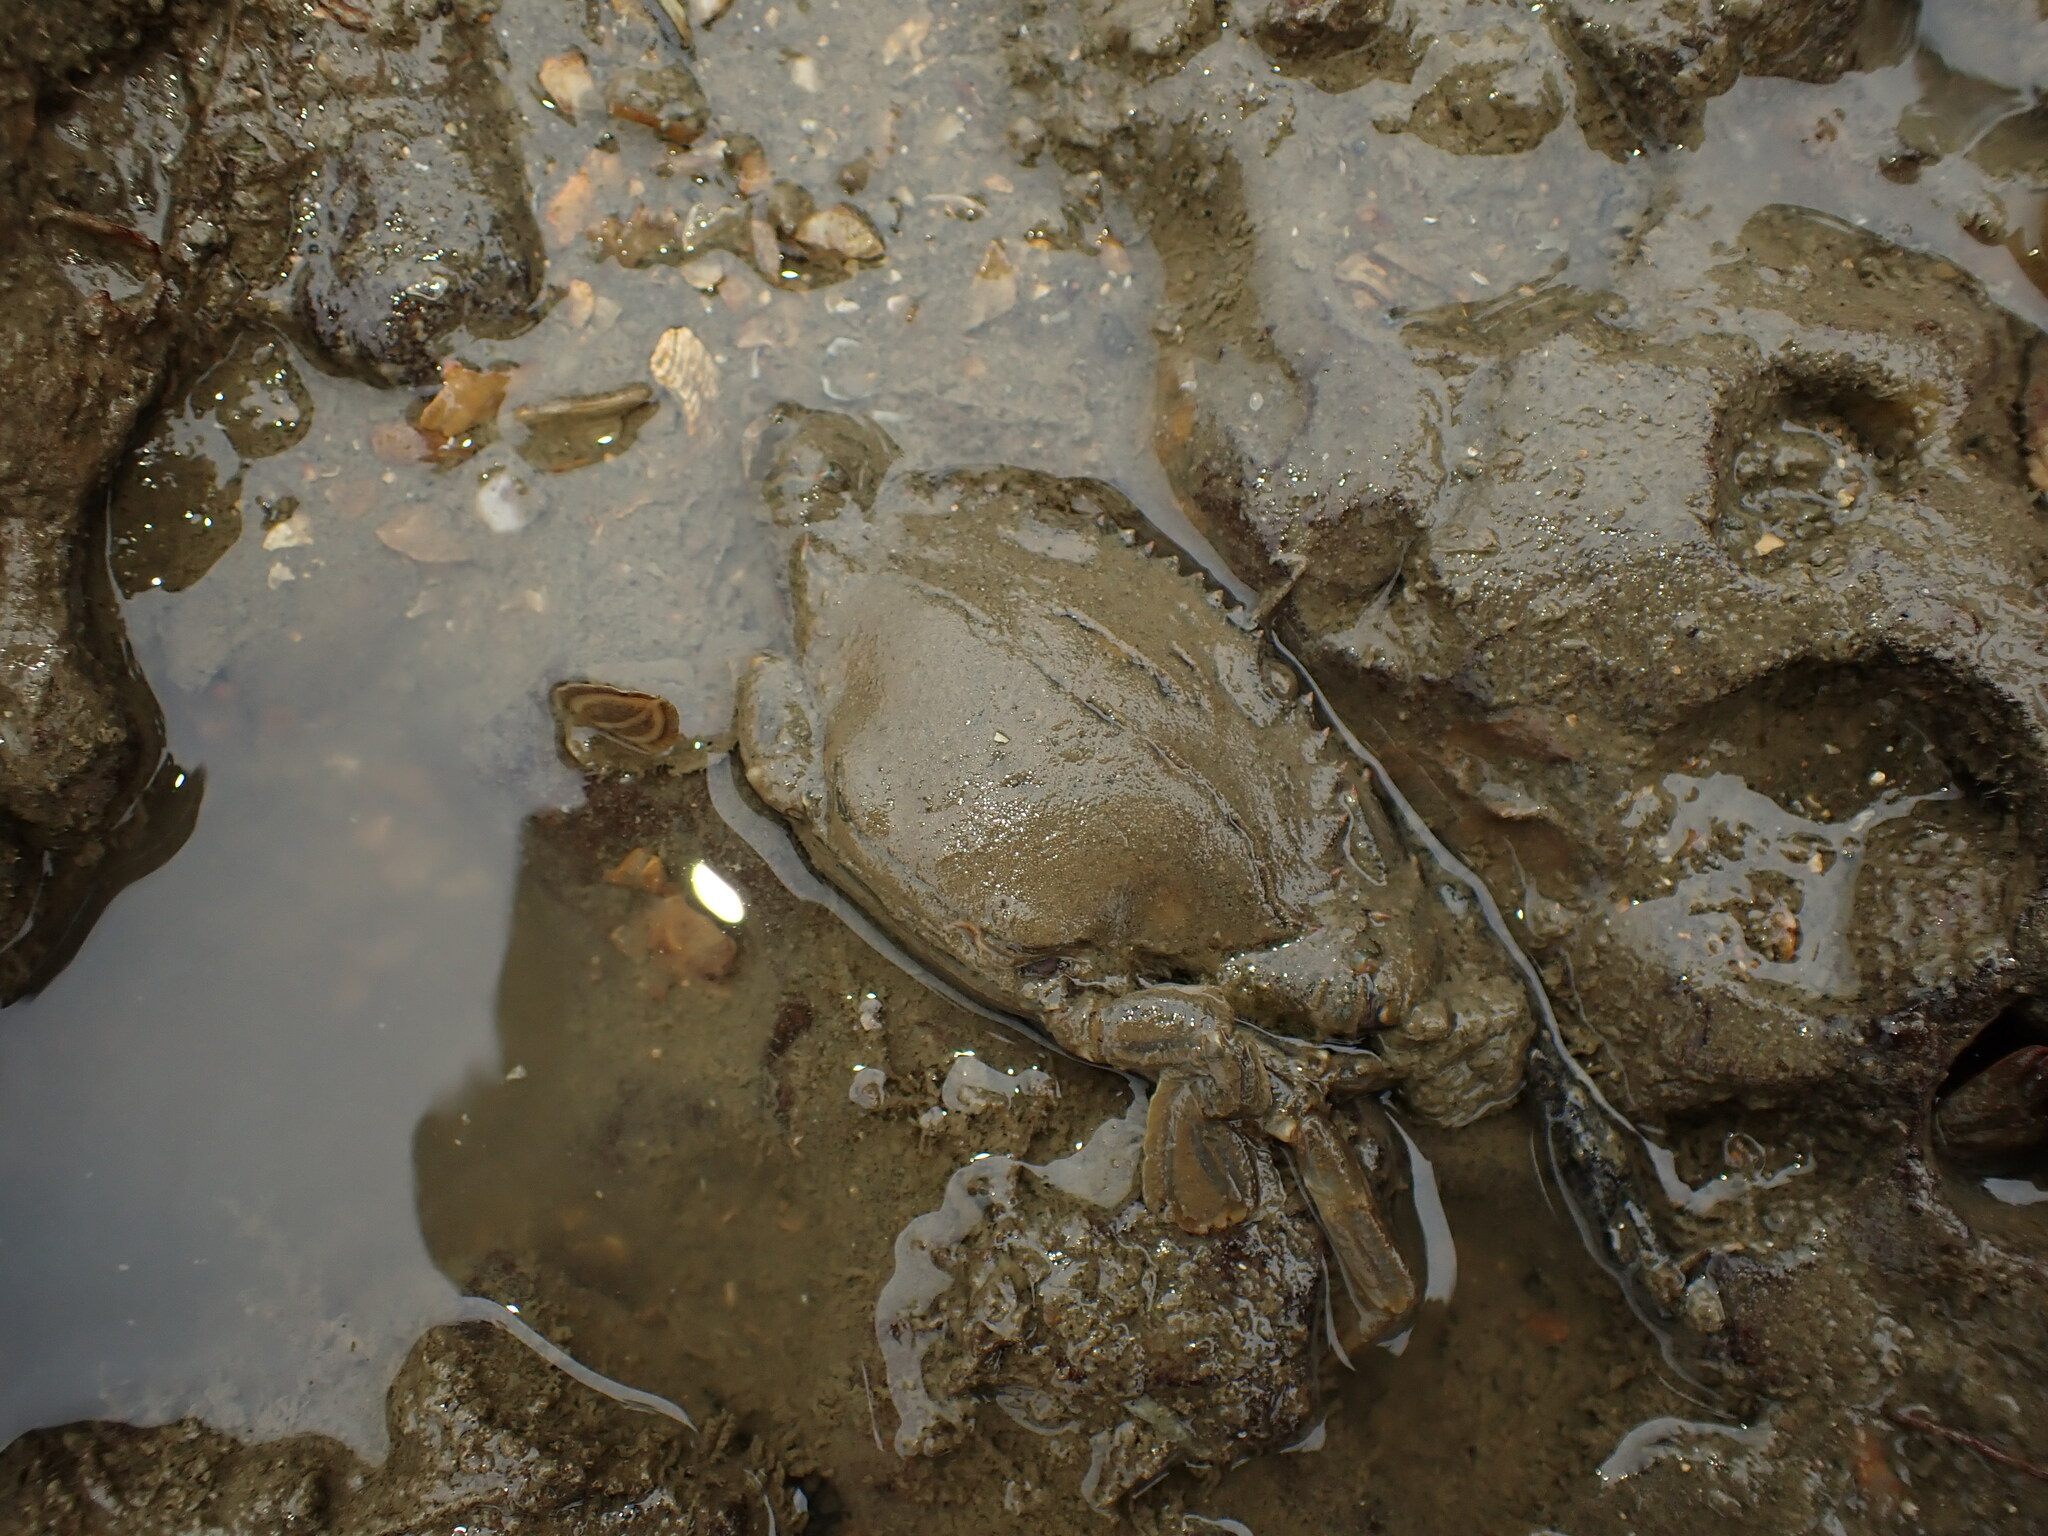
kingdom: Animalia
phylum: Arthropoda
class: Malacostraca
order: Decapoda
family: Portunidae
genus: Charybdis
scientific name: Charybdis japonica
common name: Asian paddle crab
